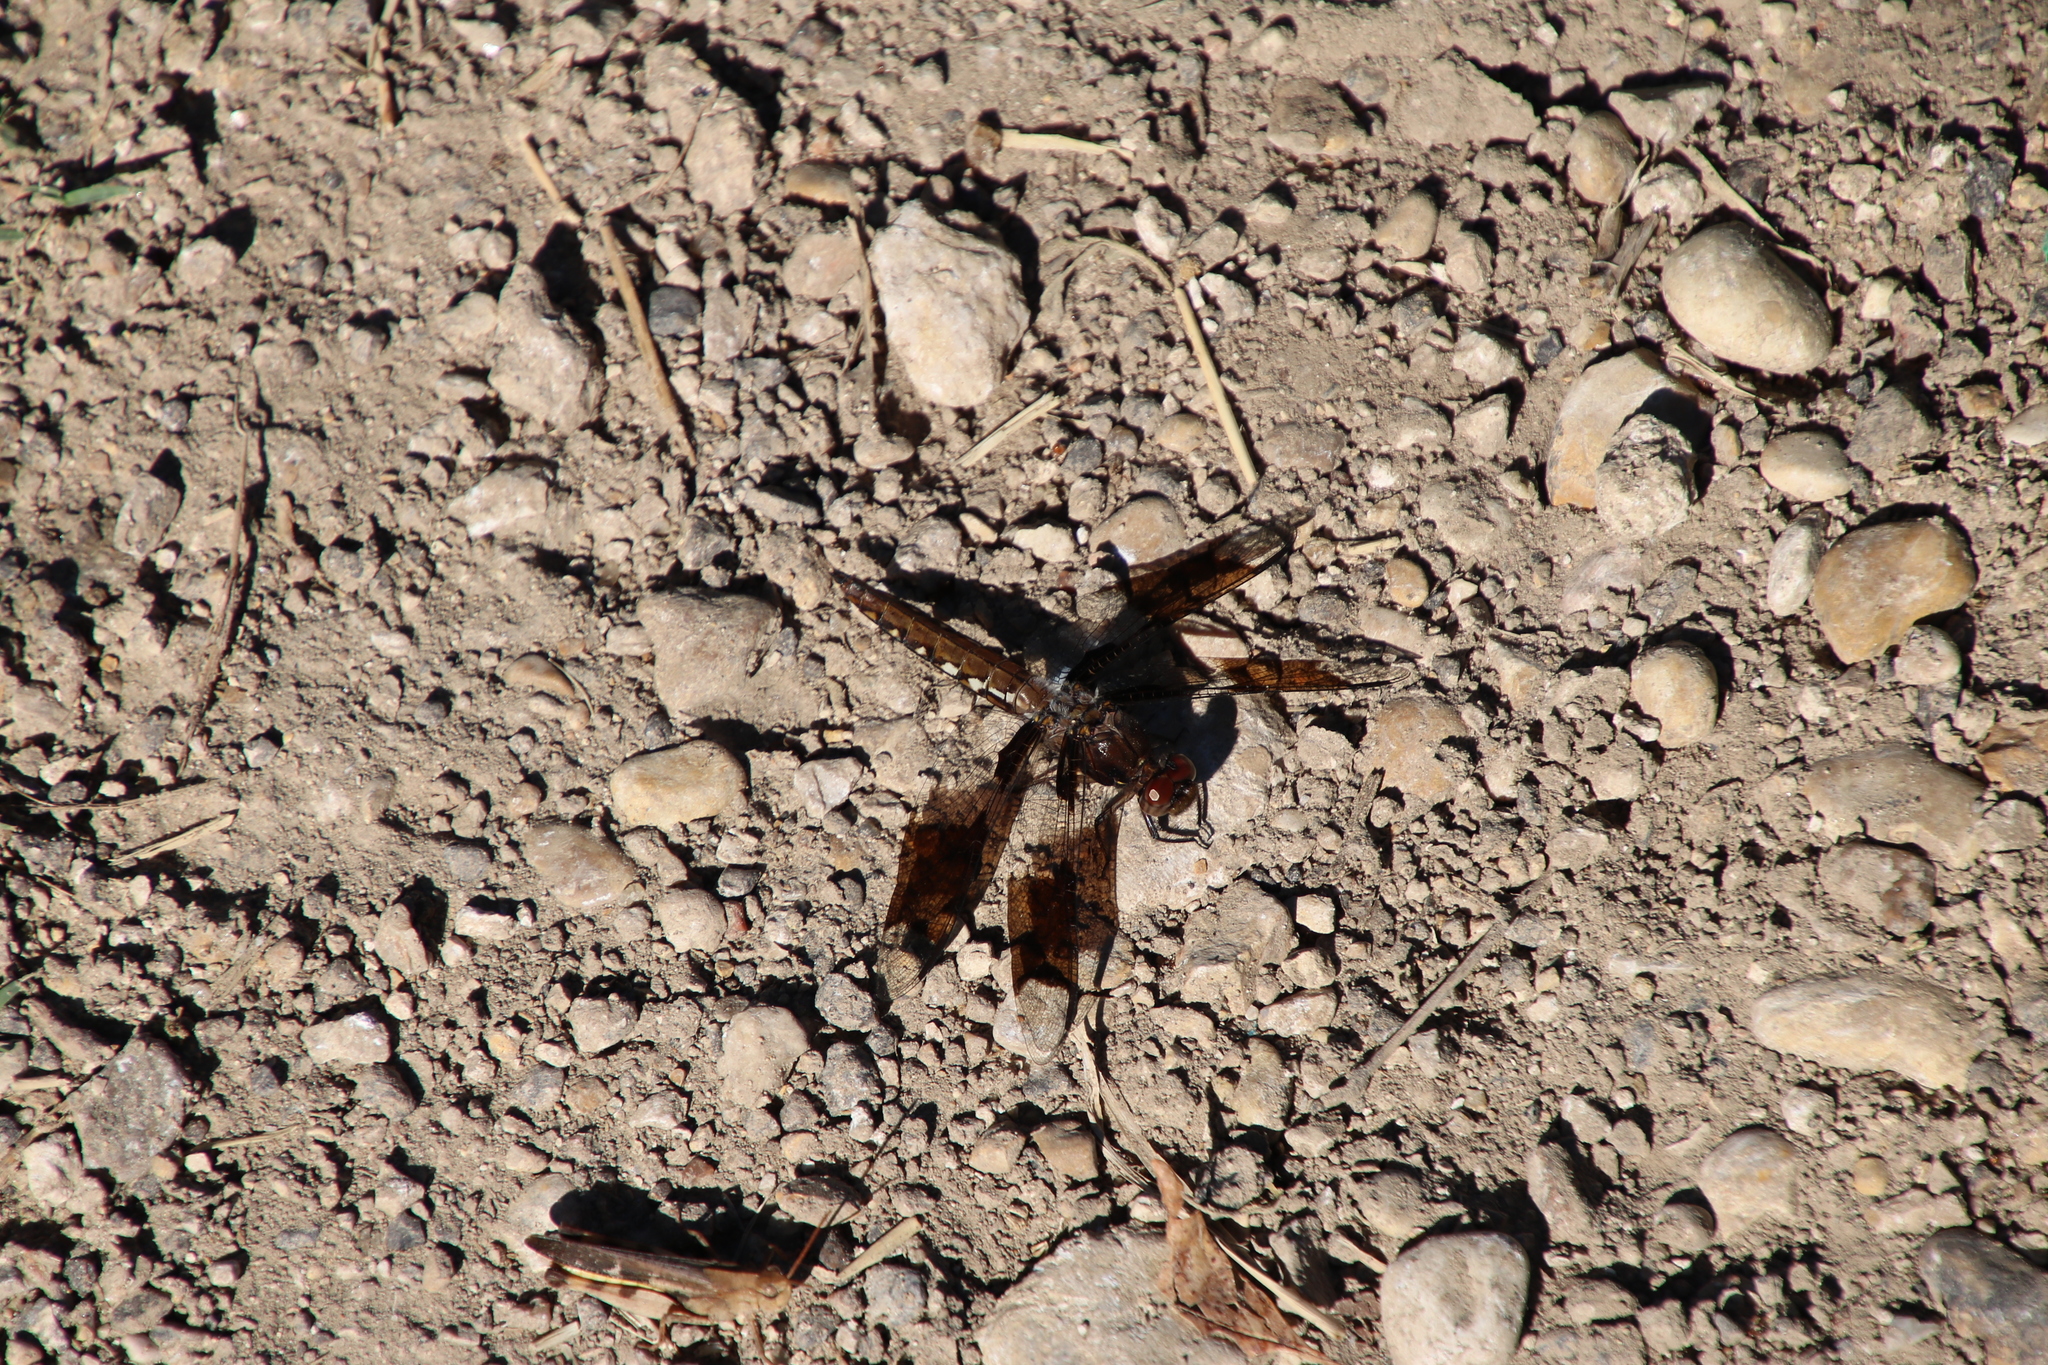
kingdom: Animalia
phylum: Arthropoda
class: Insecta
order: Odonata
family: Libellulidae
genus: Plathemis
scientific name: Plathemis lydia
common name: Common whitetail
